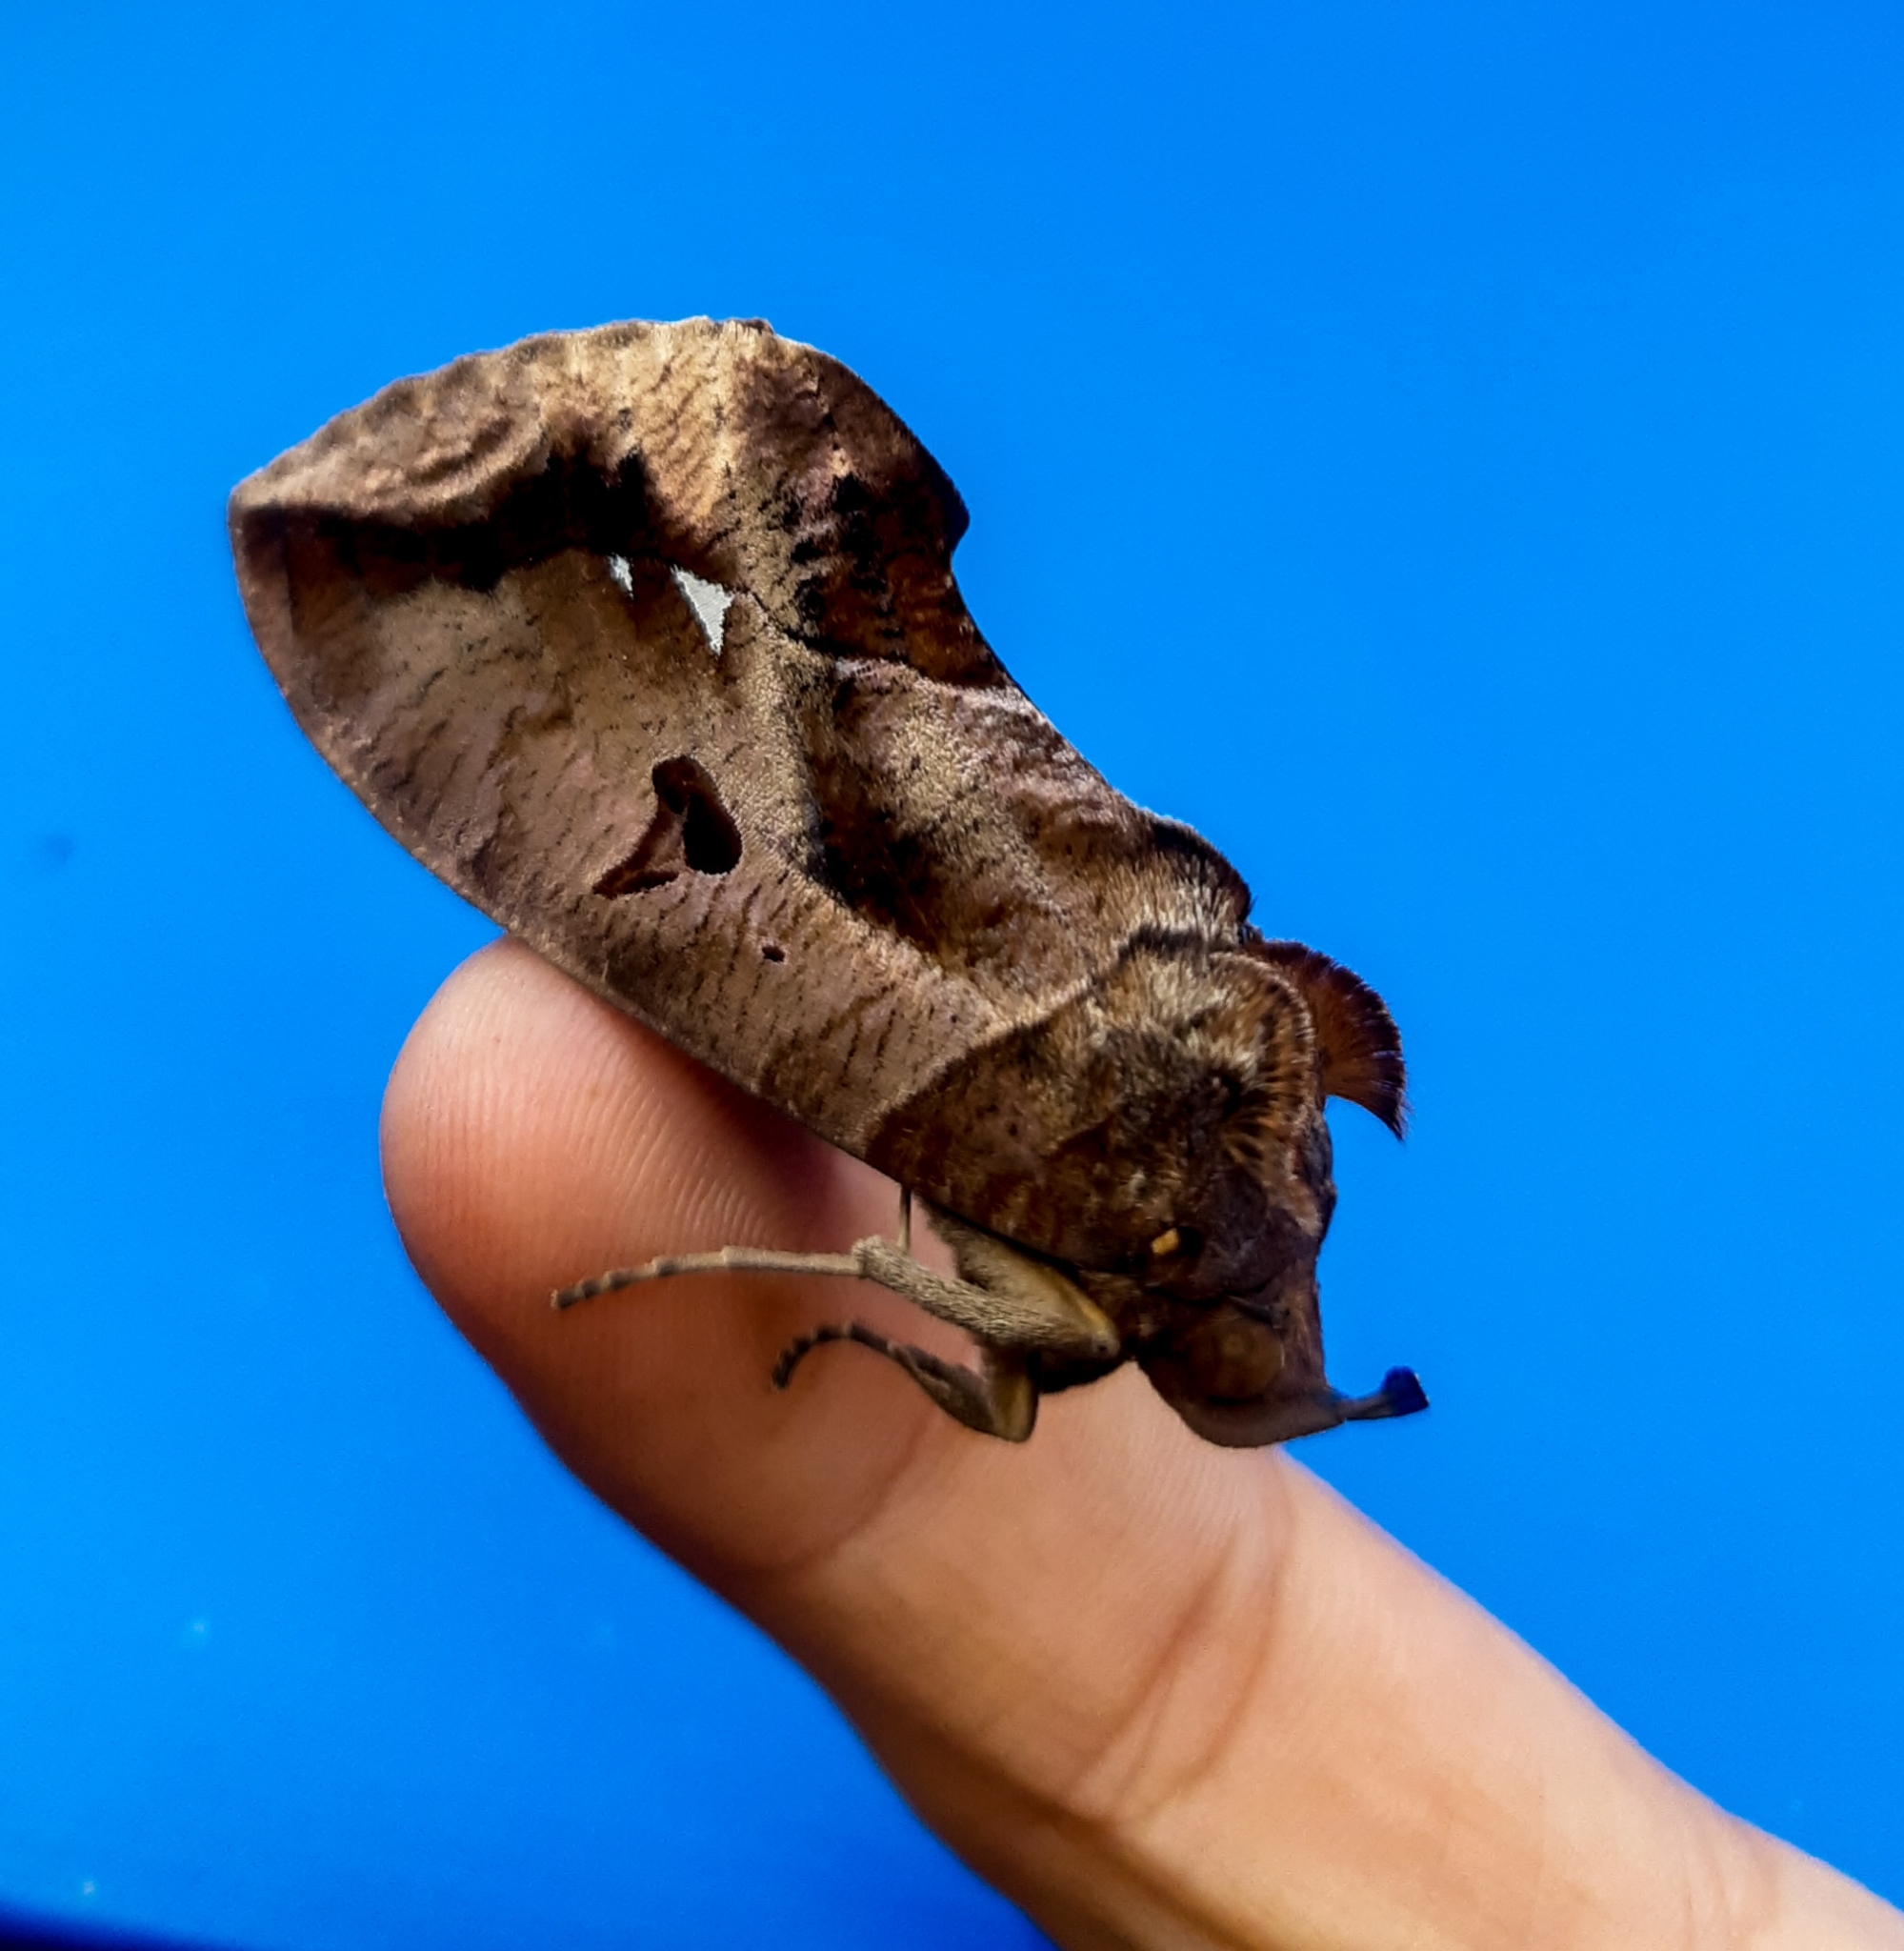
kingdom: Animalia
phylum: Arthropoda
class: Insecta
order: Lepidoptera
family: Erebidae
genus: Eudocima
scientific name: Eudocima procus
